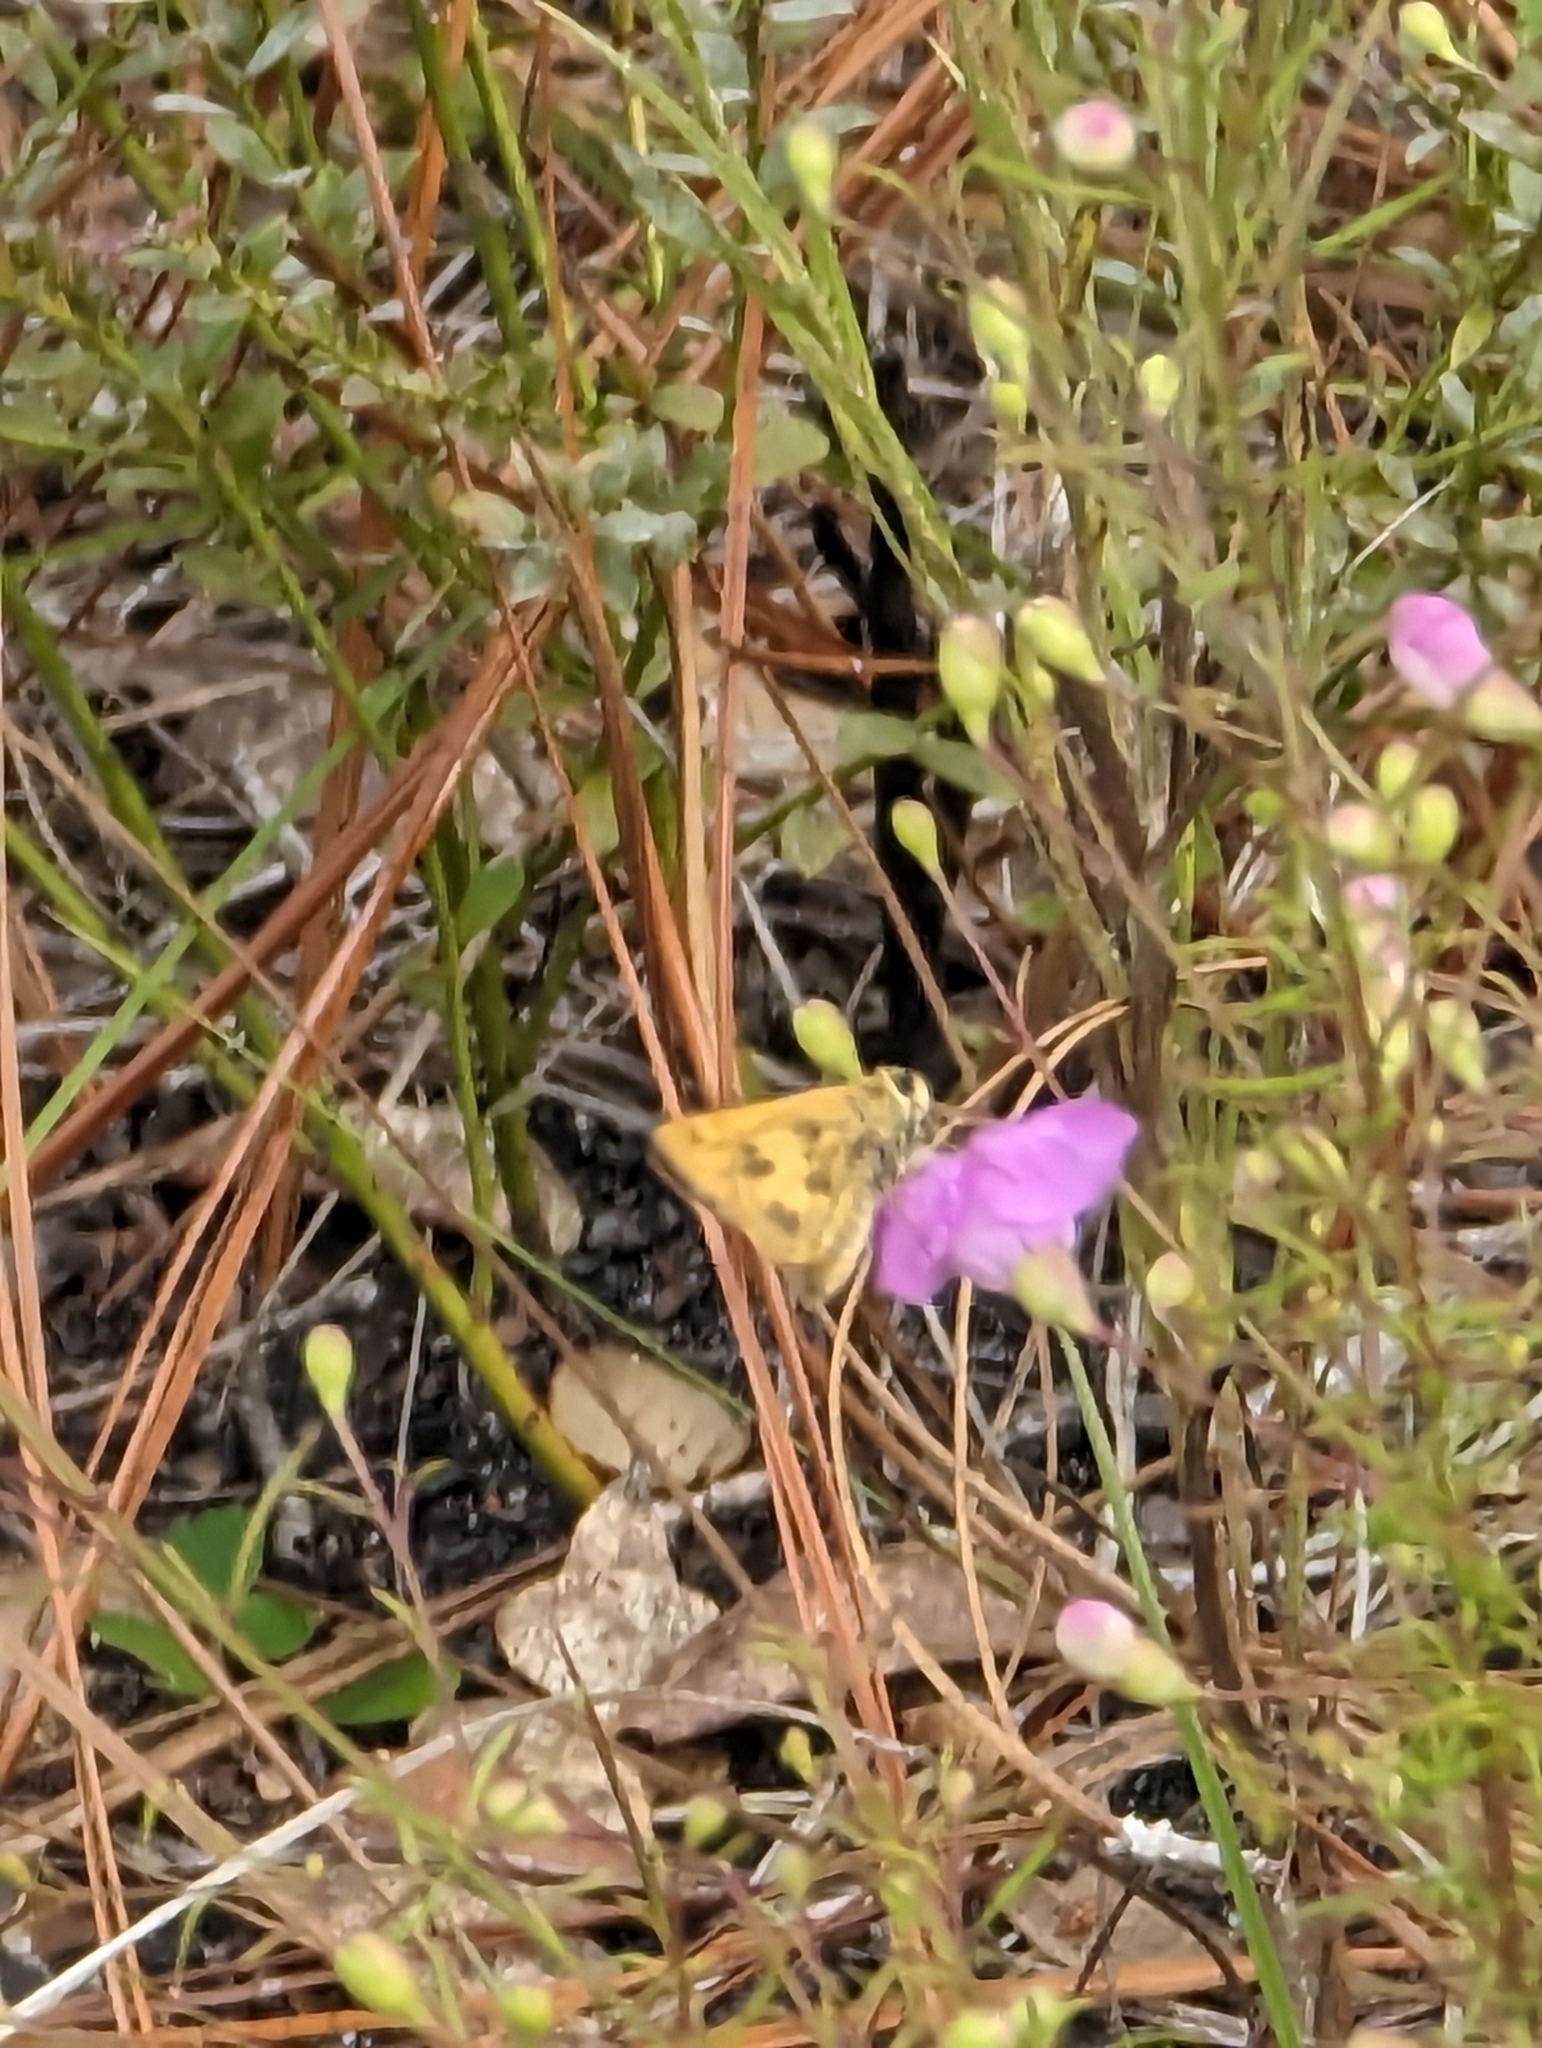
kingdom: Animalia
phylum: Arthropoda
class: Insecta
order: Lepidoptera
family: Hesperiidae
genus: Polites
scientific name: Polites vibex
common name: Whirlabout
